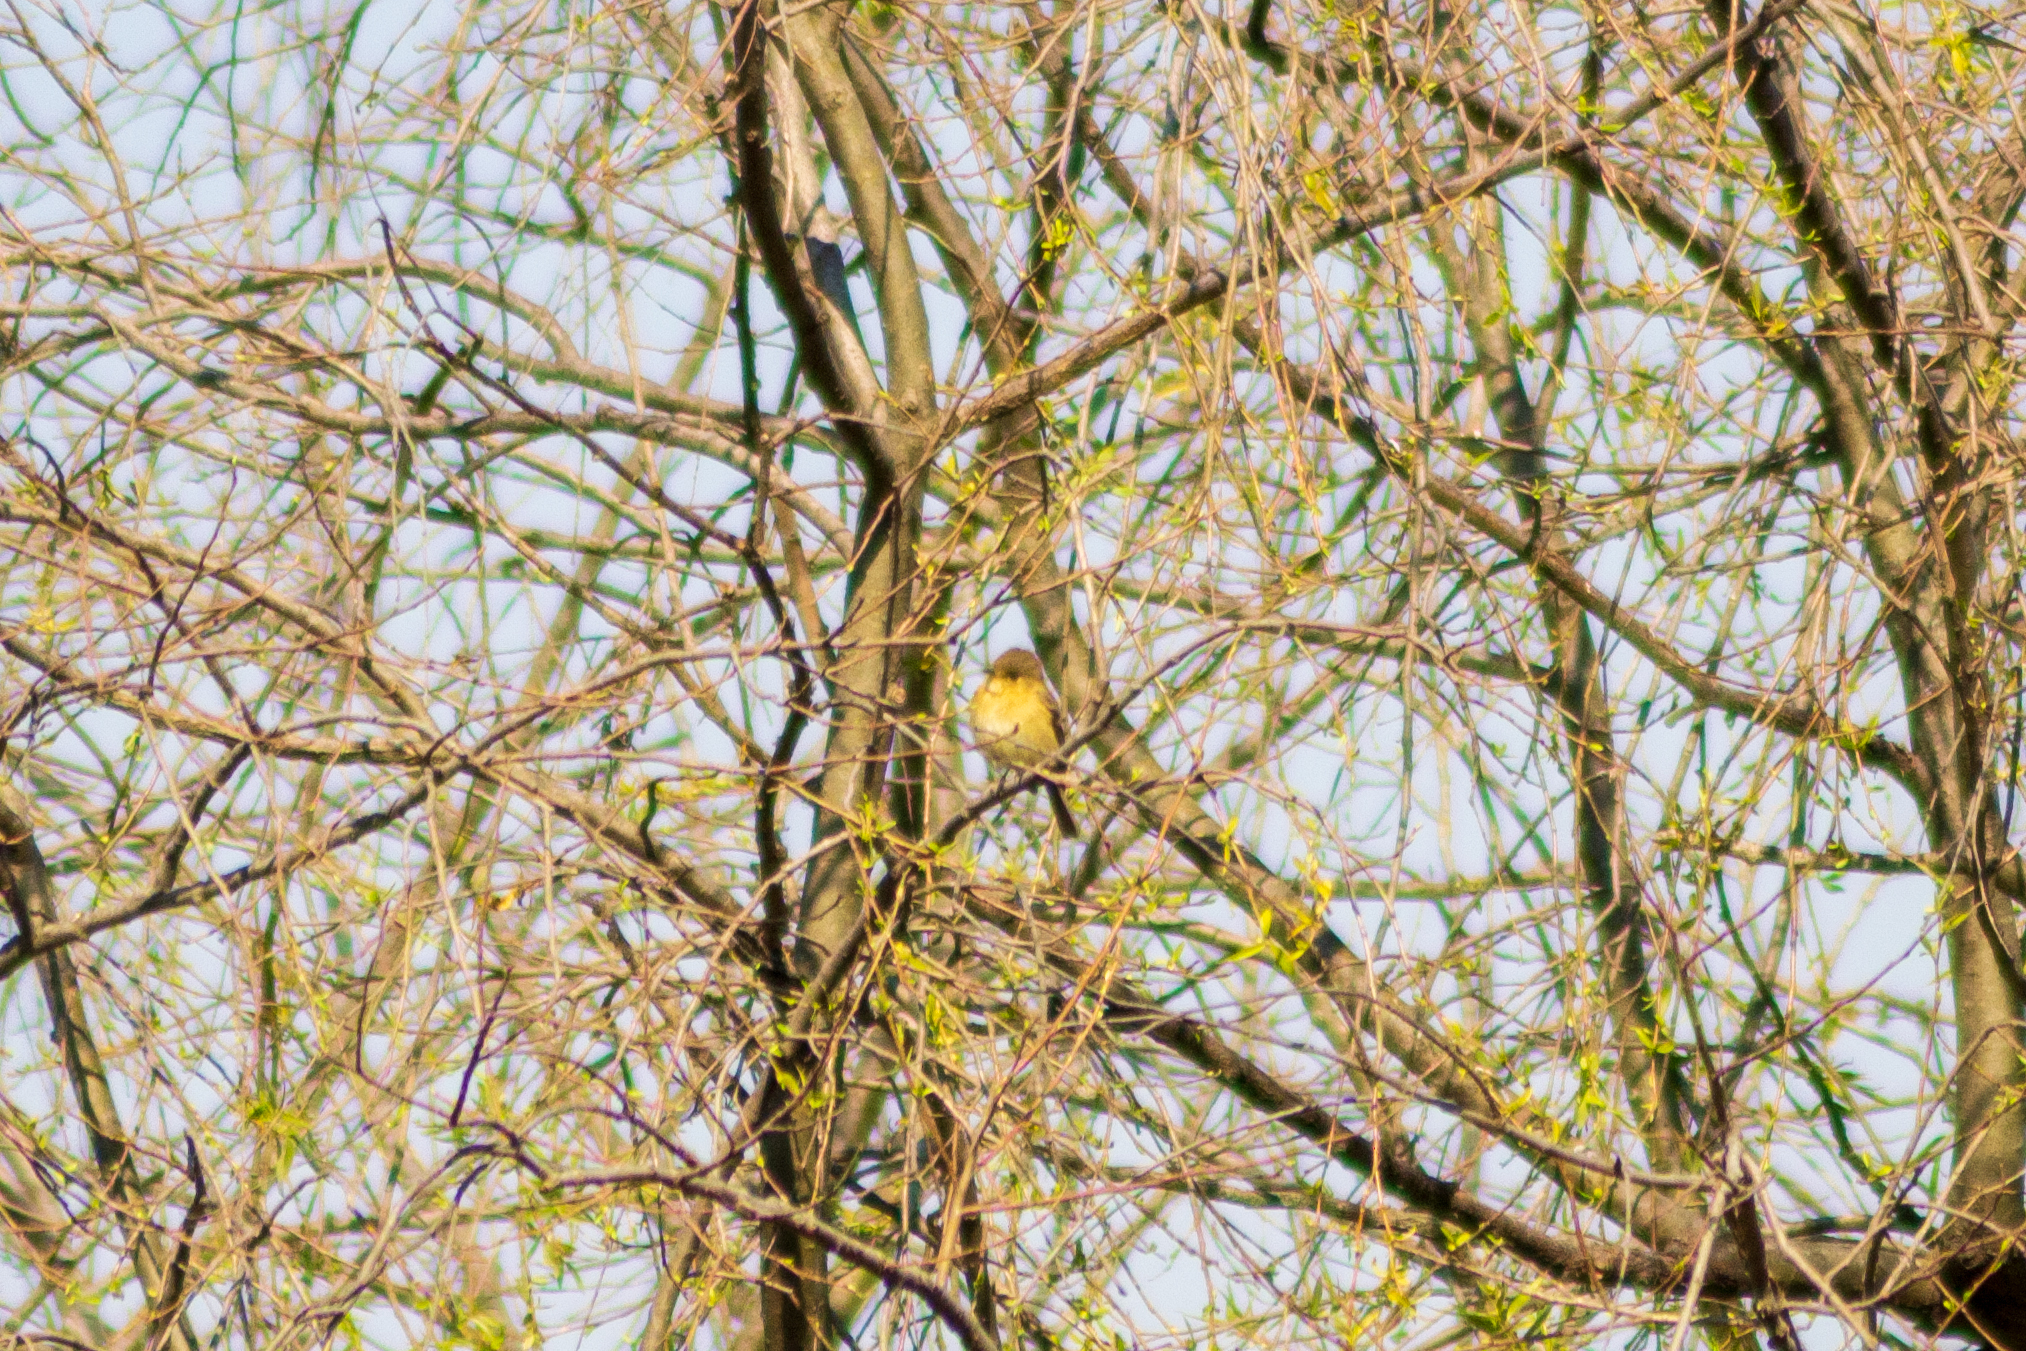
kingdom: Animalia
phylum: Chordata
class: Aves
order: Passeriformes
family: Tyrannidae
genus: Tyrannus
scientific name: Tyrannus vociferans
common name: Cassin's kingbird
